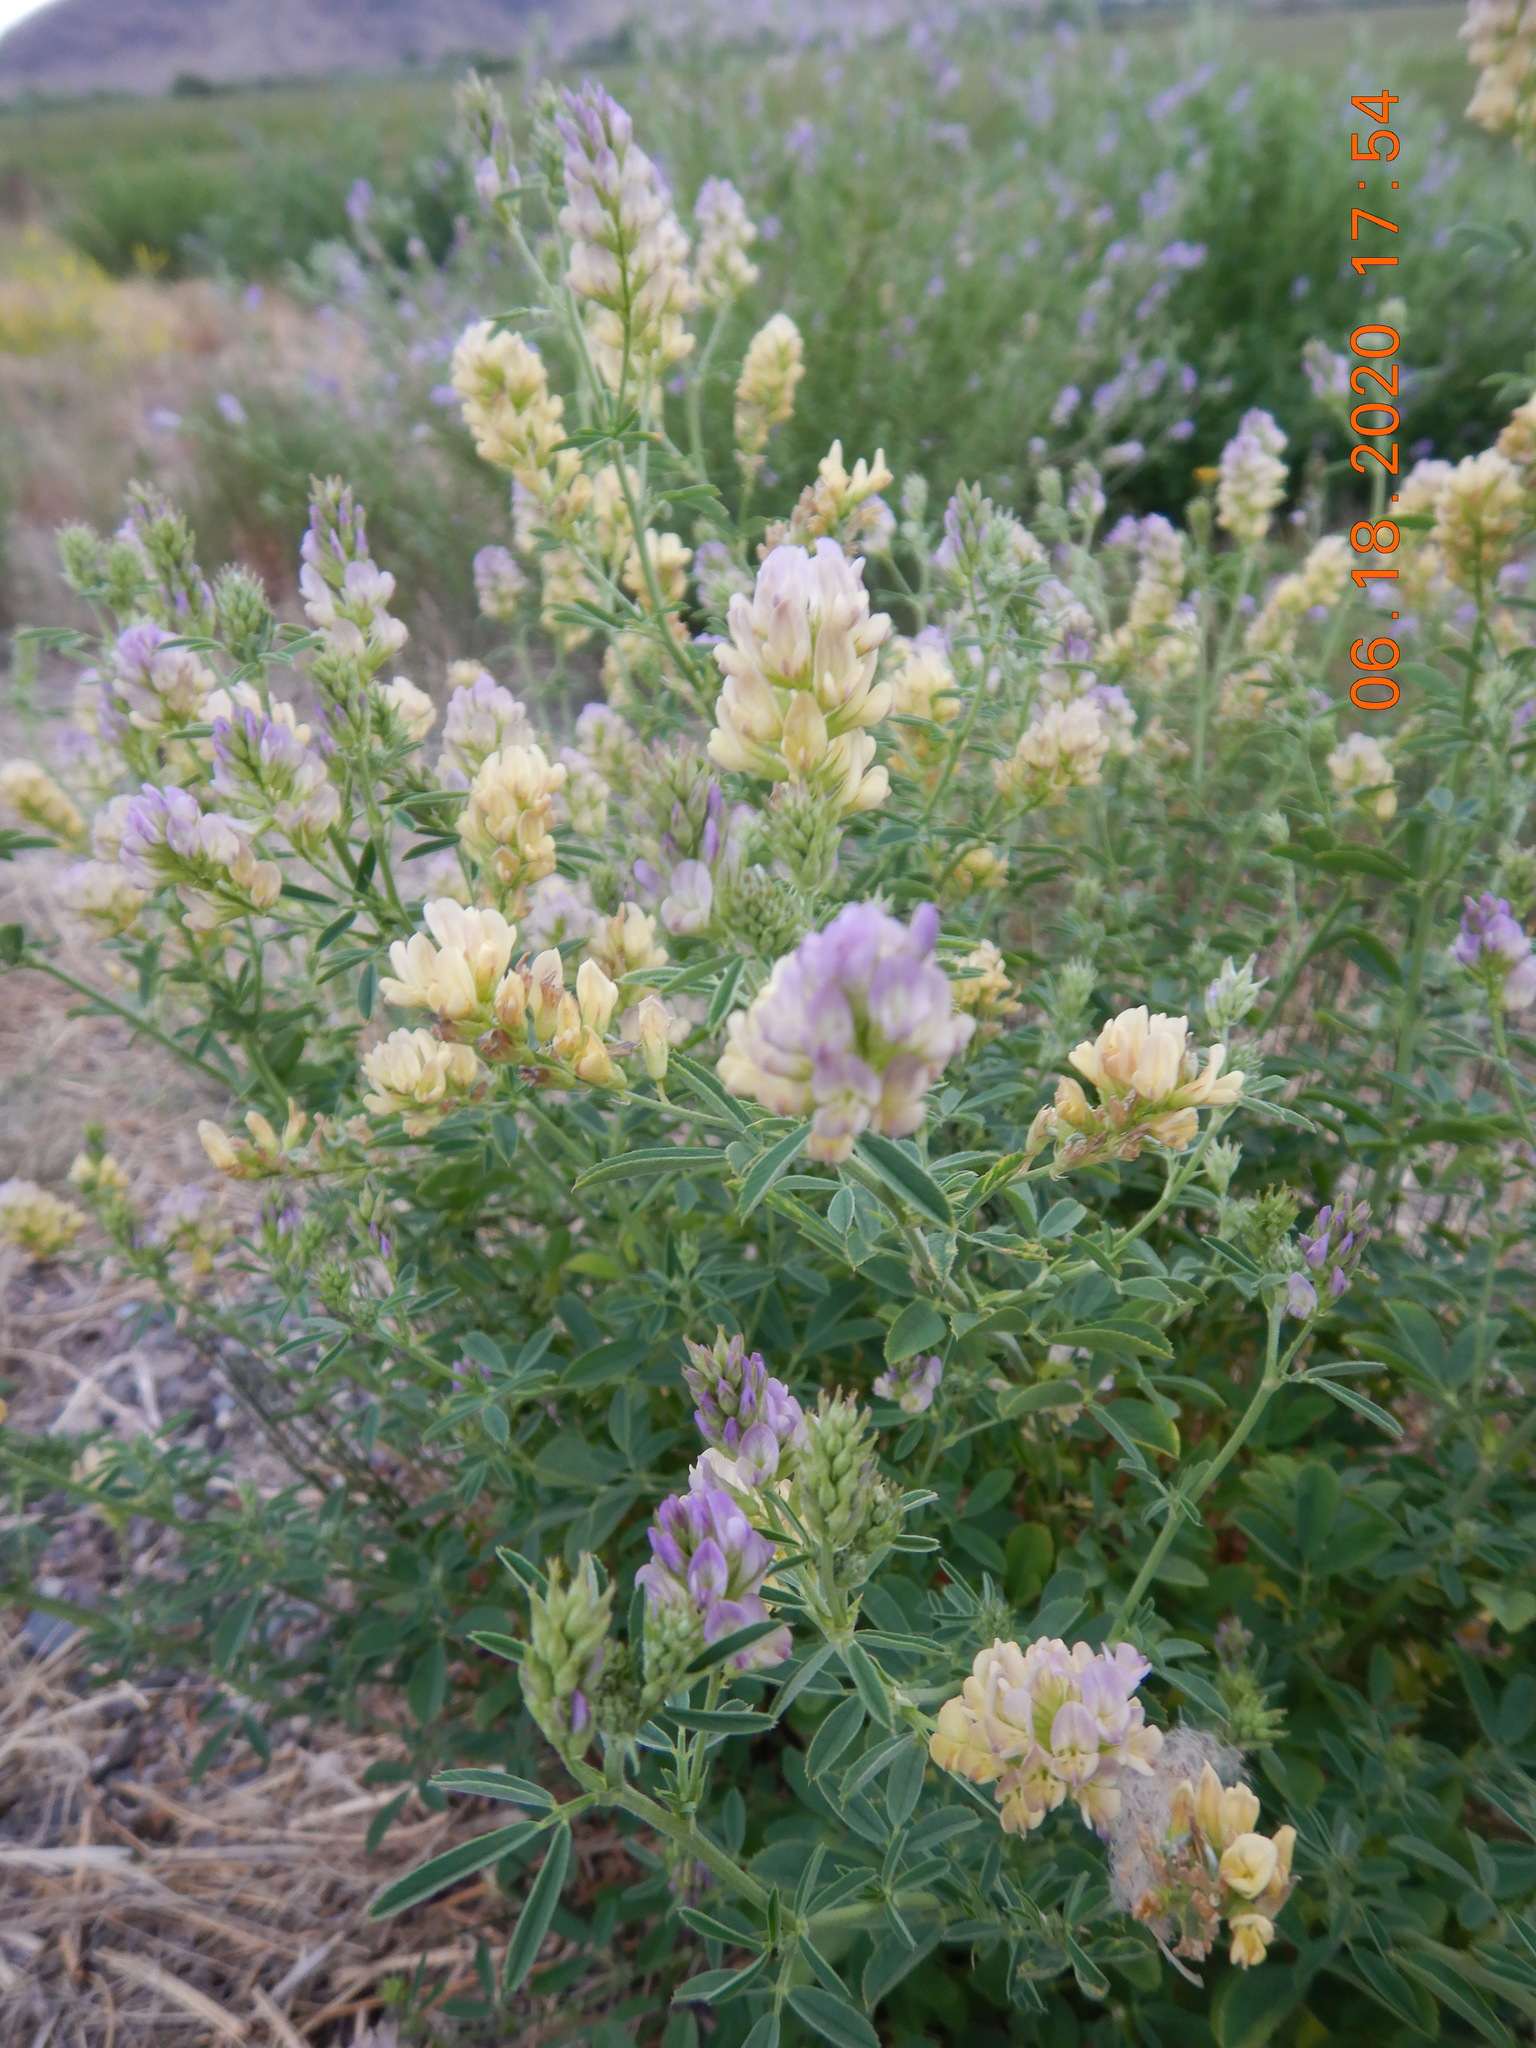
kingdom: Plantae
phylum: Tracheophyta
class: Magnoliopsida
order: Fabales
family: Fabaceae
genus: Medicago
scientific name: Medicago sativa
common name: Alfalfa
